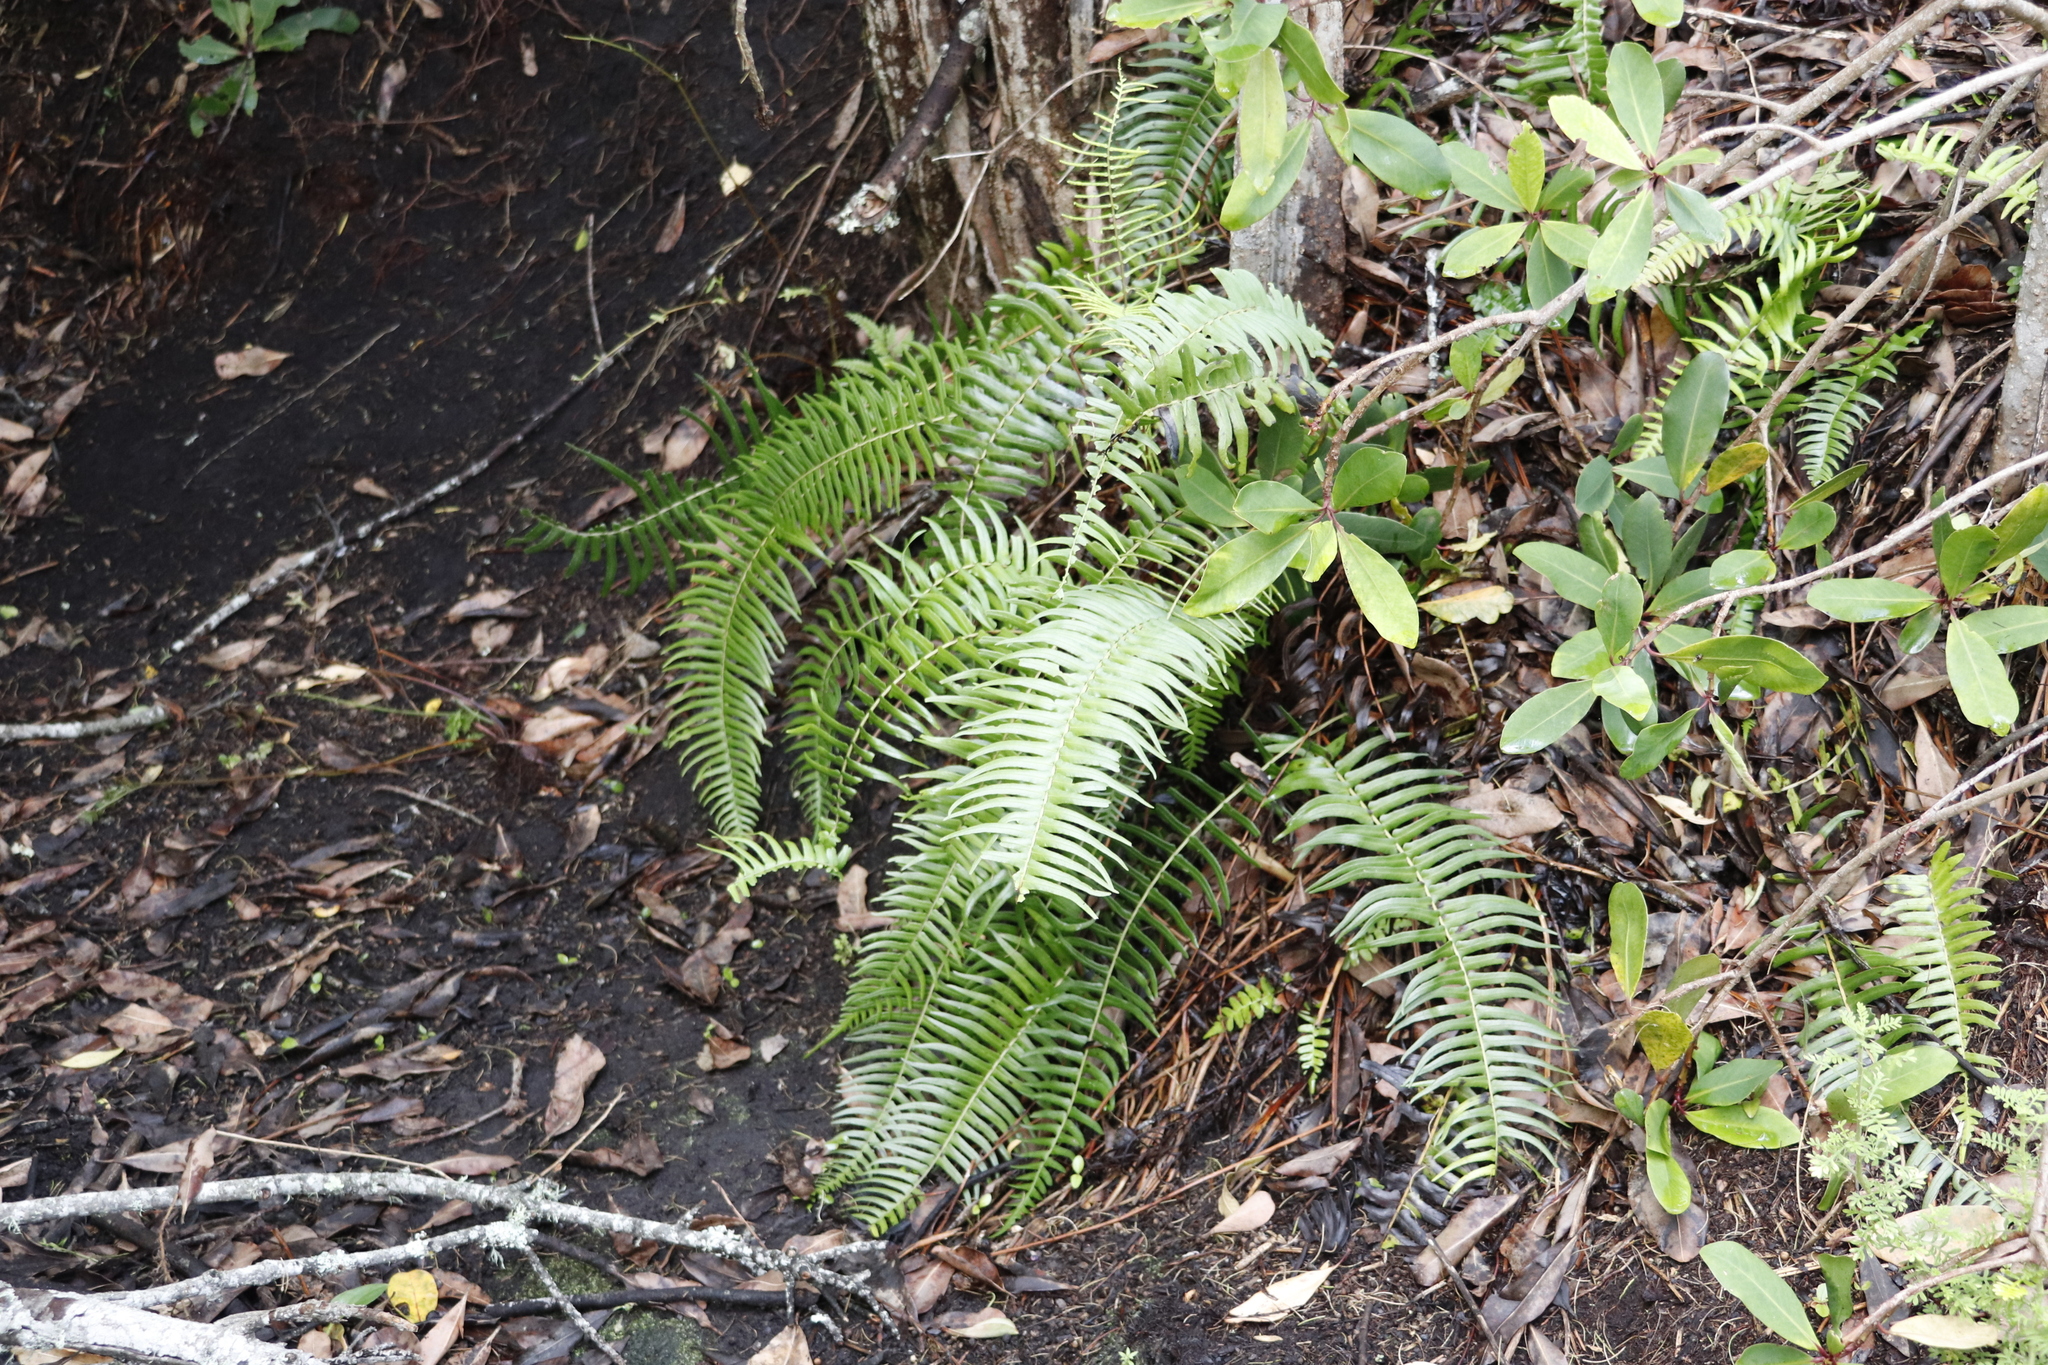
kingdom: Plantae
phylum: Tracheophyta
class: Polypodiopsida
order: Polypodiales
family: Blechnaceae
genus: Blechnum
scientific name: Blechnum punctulatum
